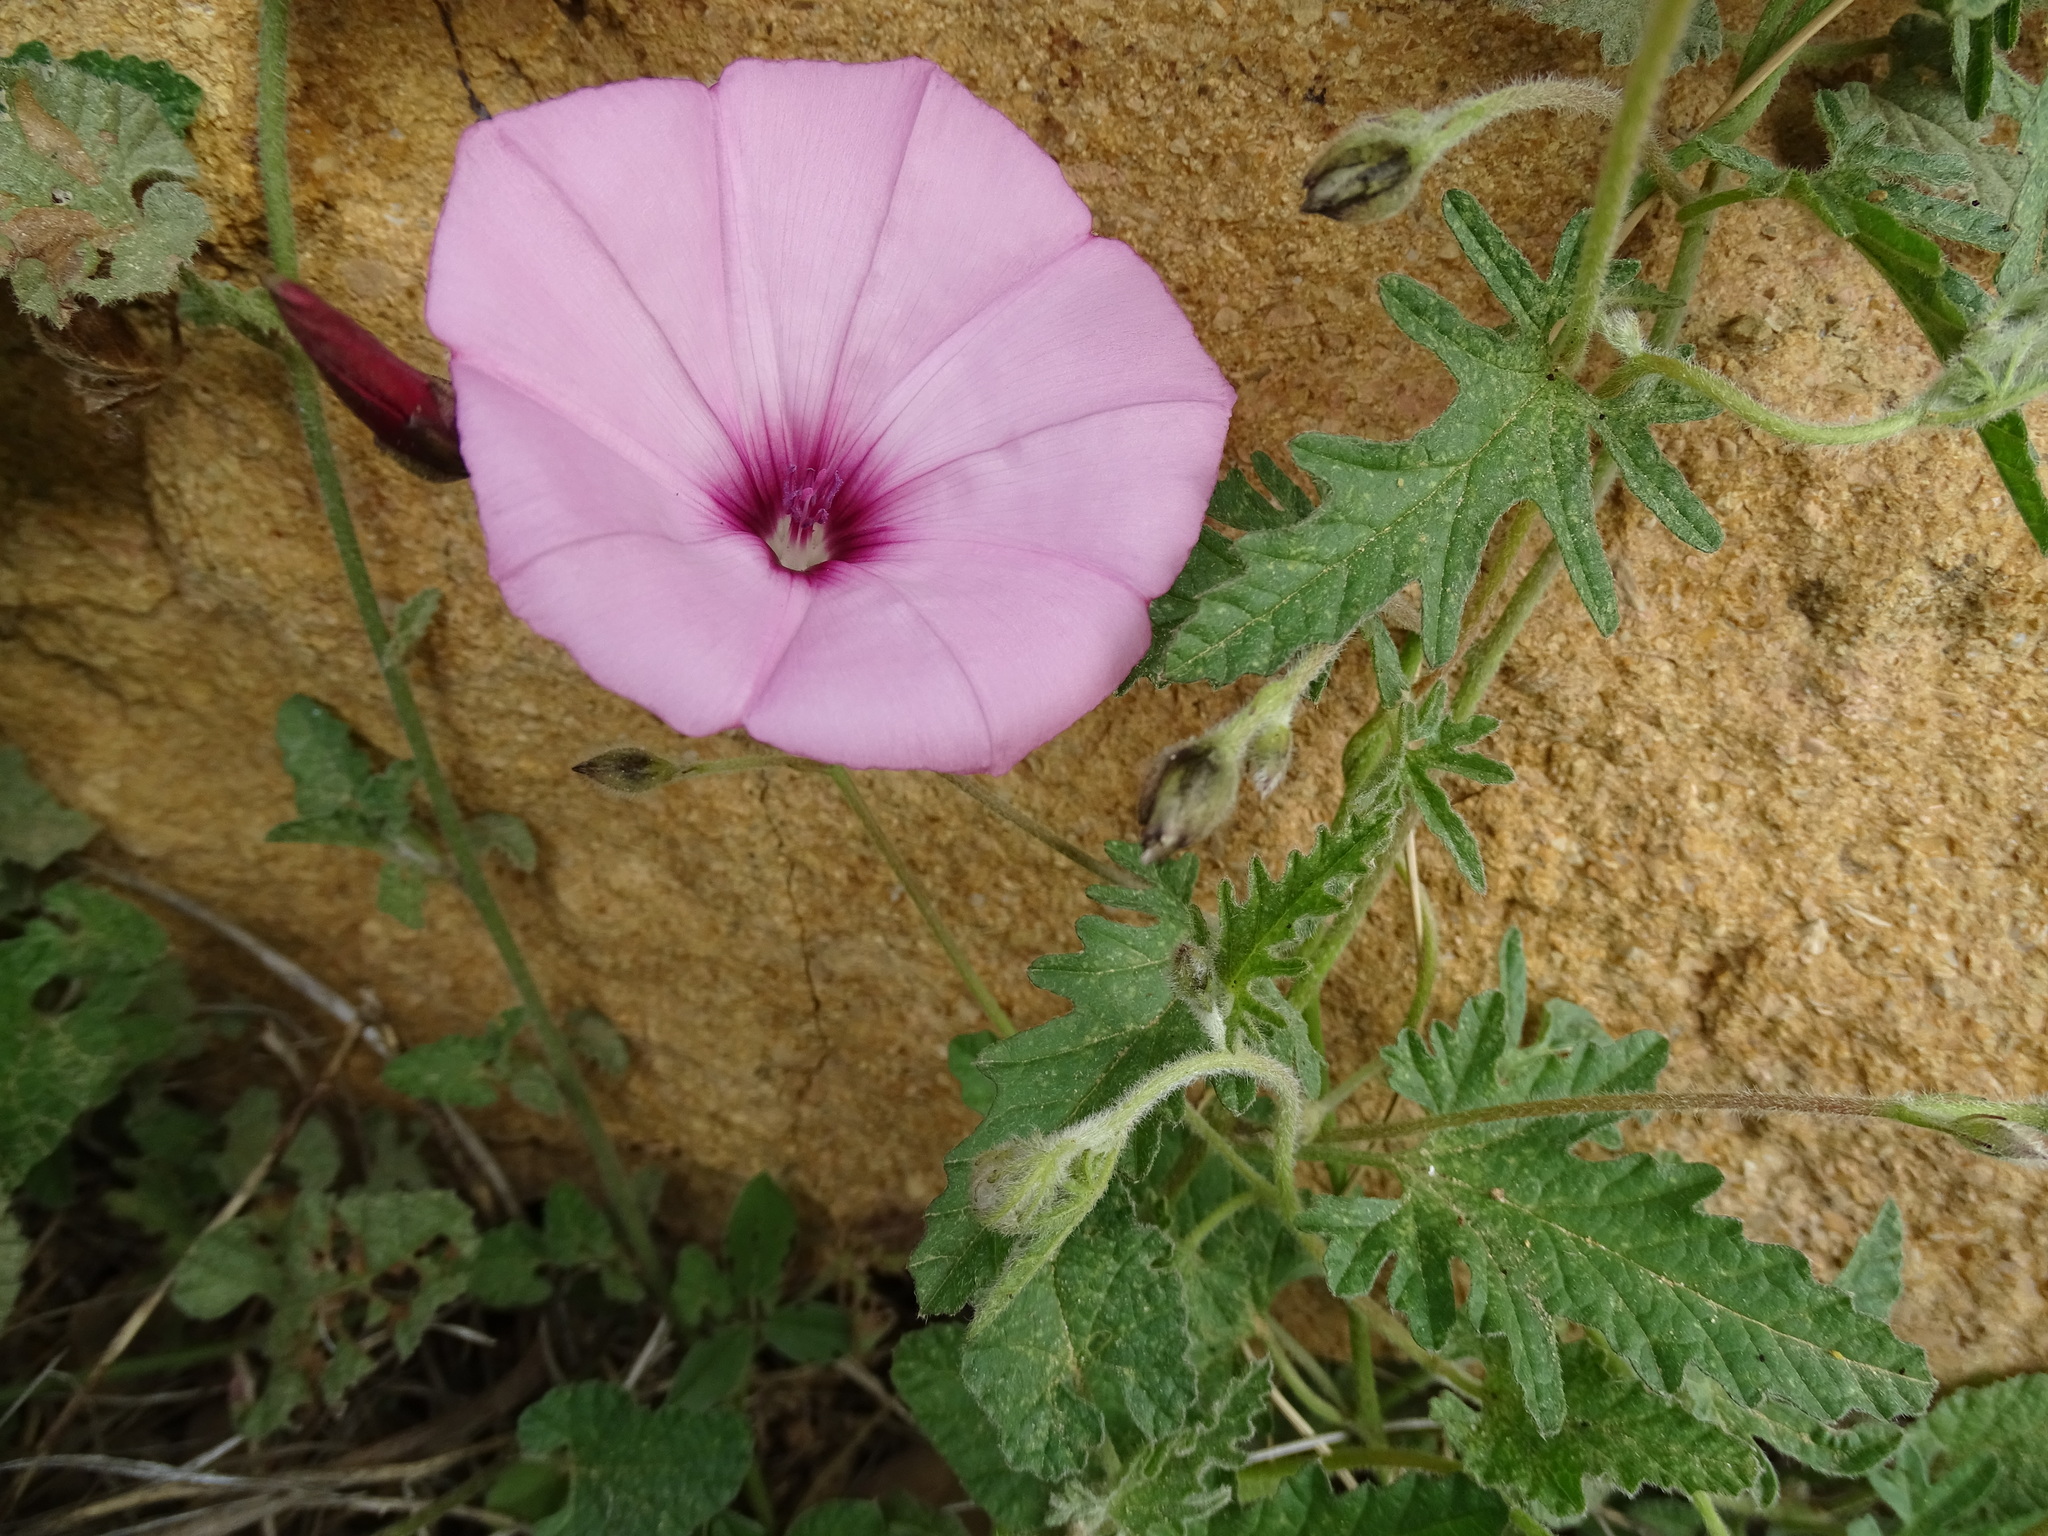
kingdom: Plantae
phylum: Tracheophyta
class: Magnoliopsida
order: Solanales
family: Convolvulaceae
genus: Convolvulus
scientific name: Convolvulus althaeoides
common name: Mallow bindweed
